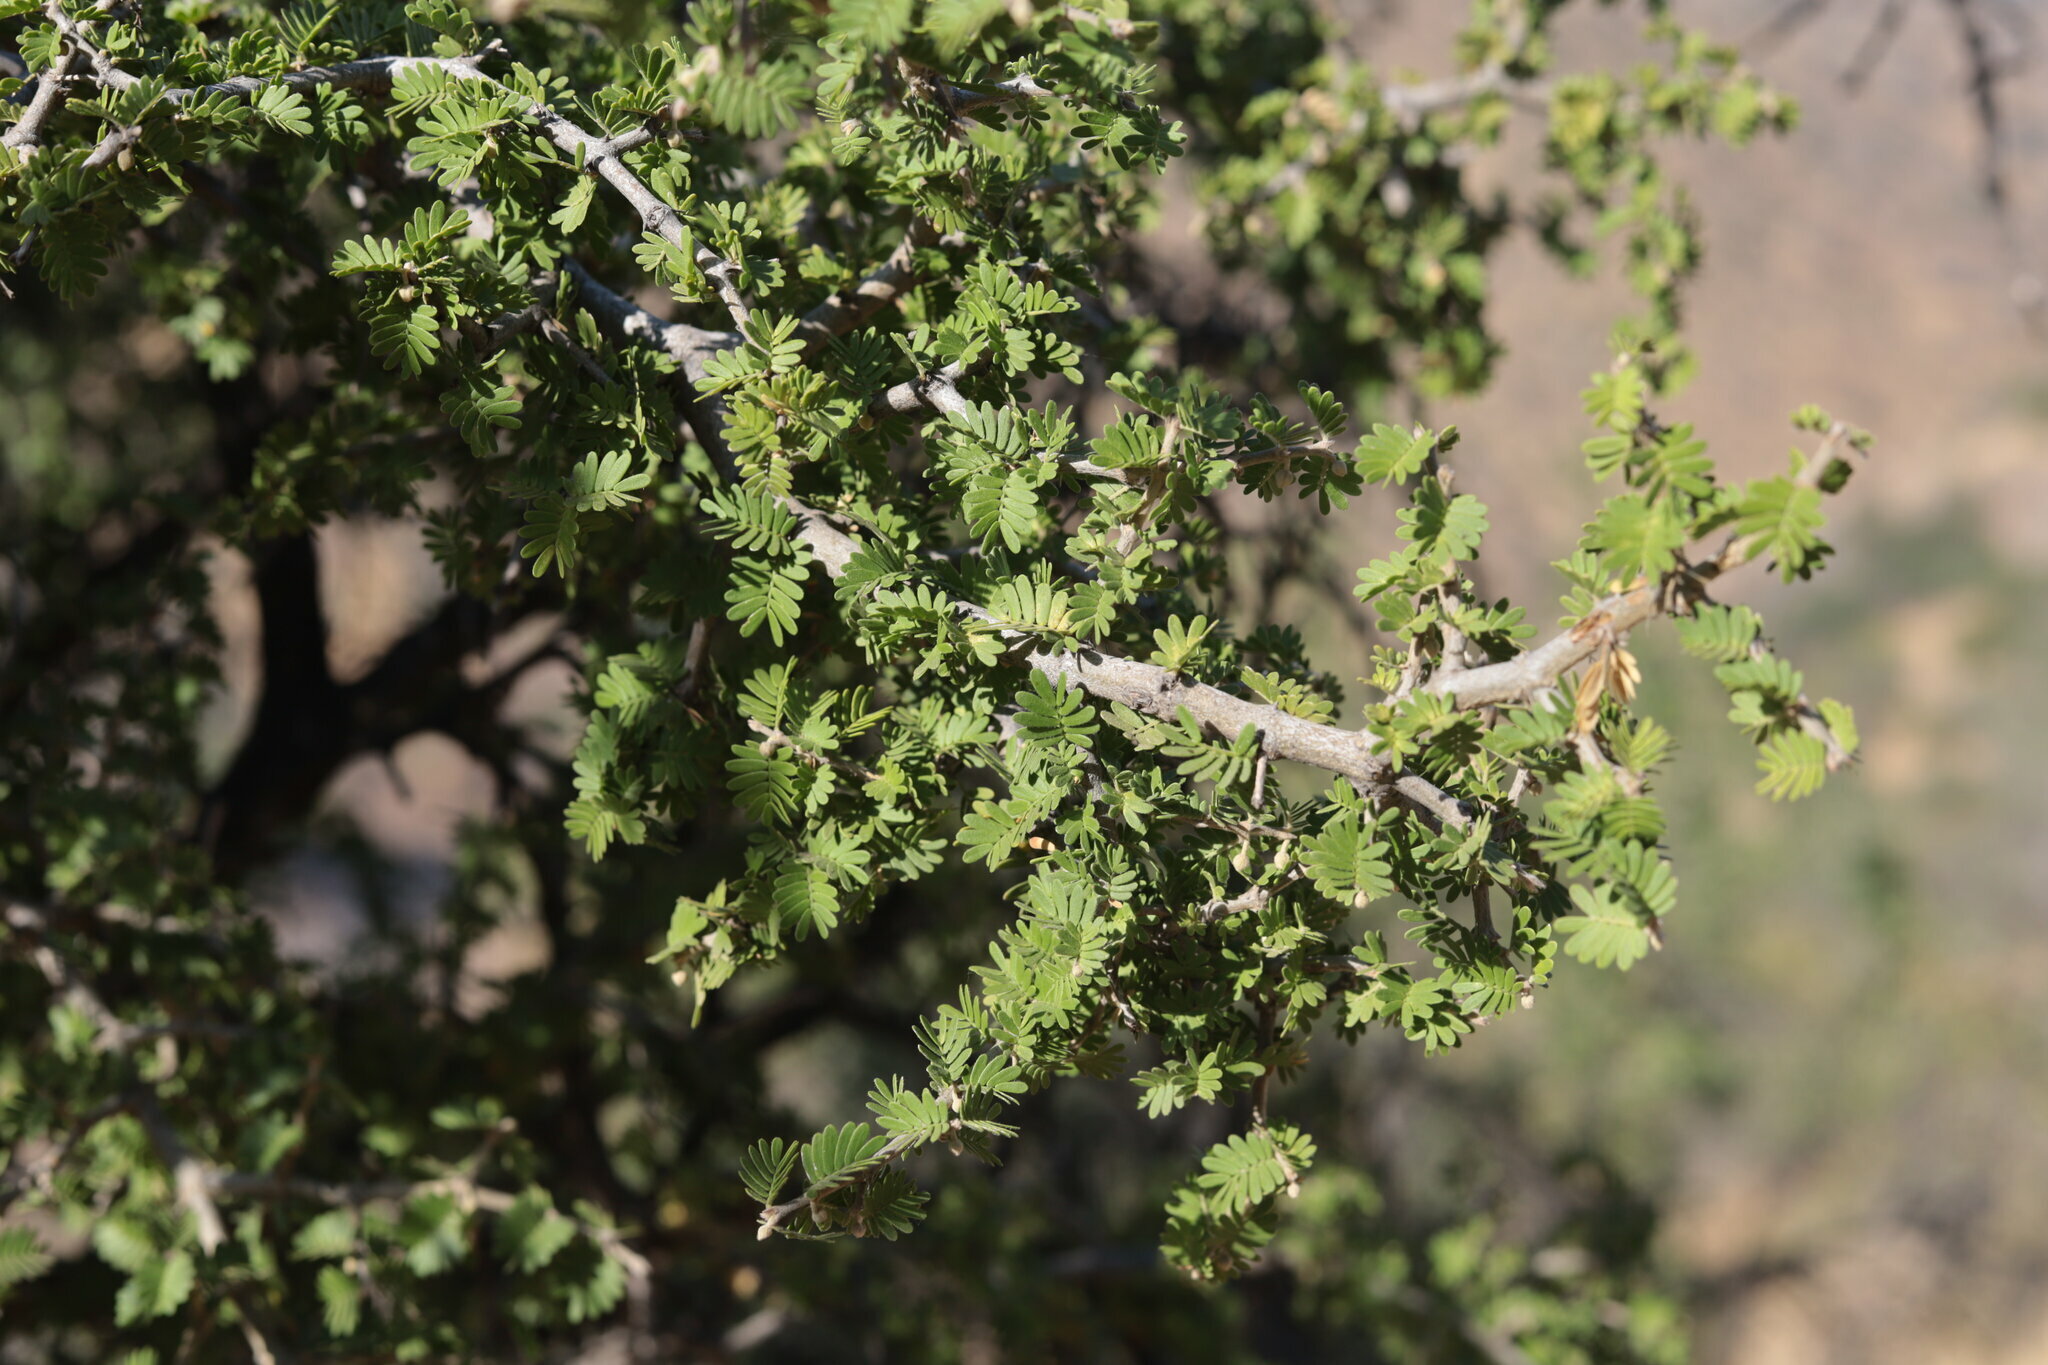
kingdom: Plantae
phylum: Tracheophyta
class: Magnoliopsida
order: Zygophyllales
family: Zygophyllaceae
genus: Porlieria
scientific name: Porlieria chilensis
